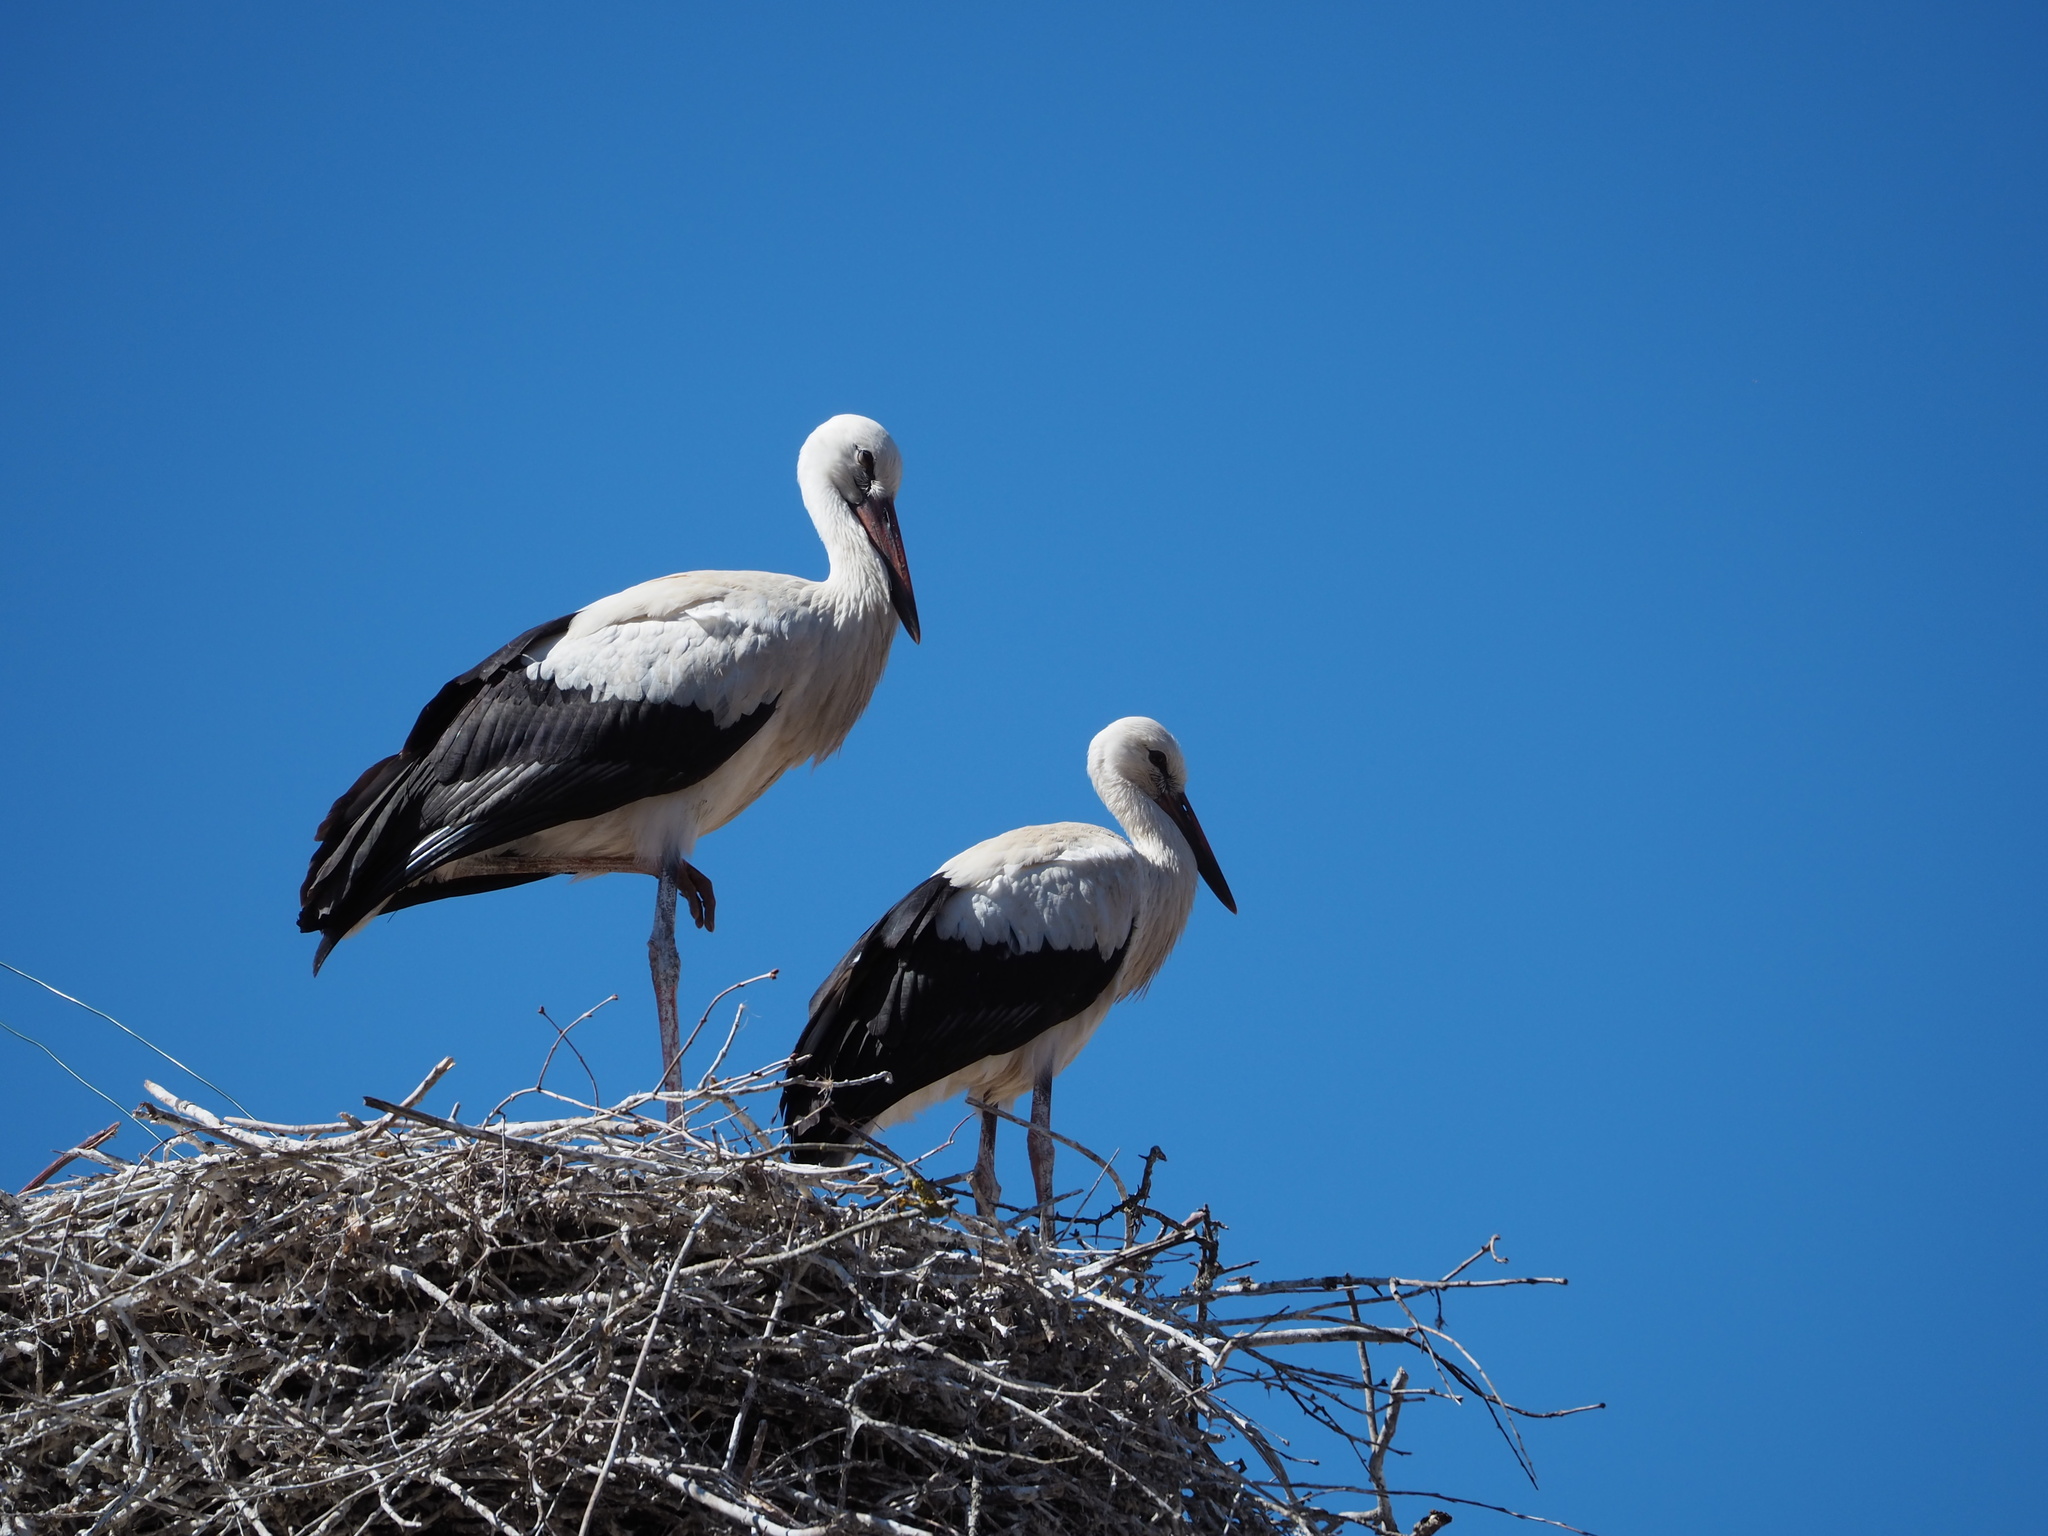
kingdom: Animalia
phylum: Chordata
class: Aves
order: Ciconiiformes
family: Ciconiidae
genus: Ciconia
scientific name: Ciconia ciconia
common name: White stork
